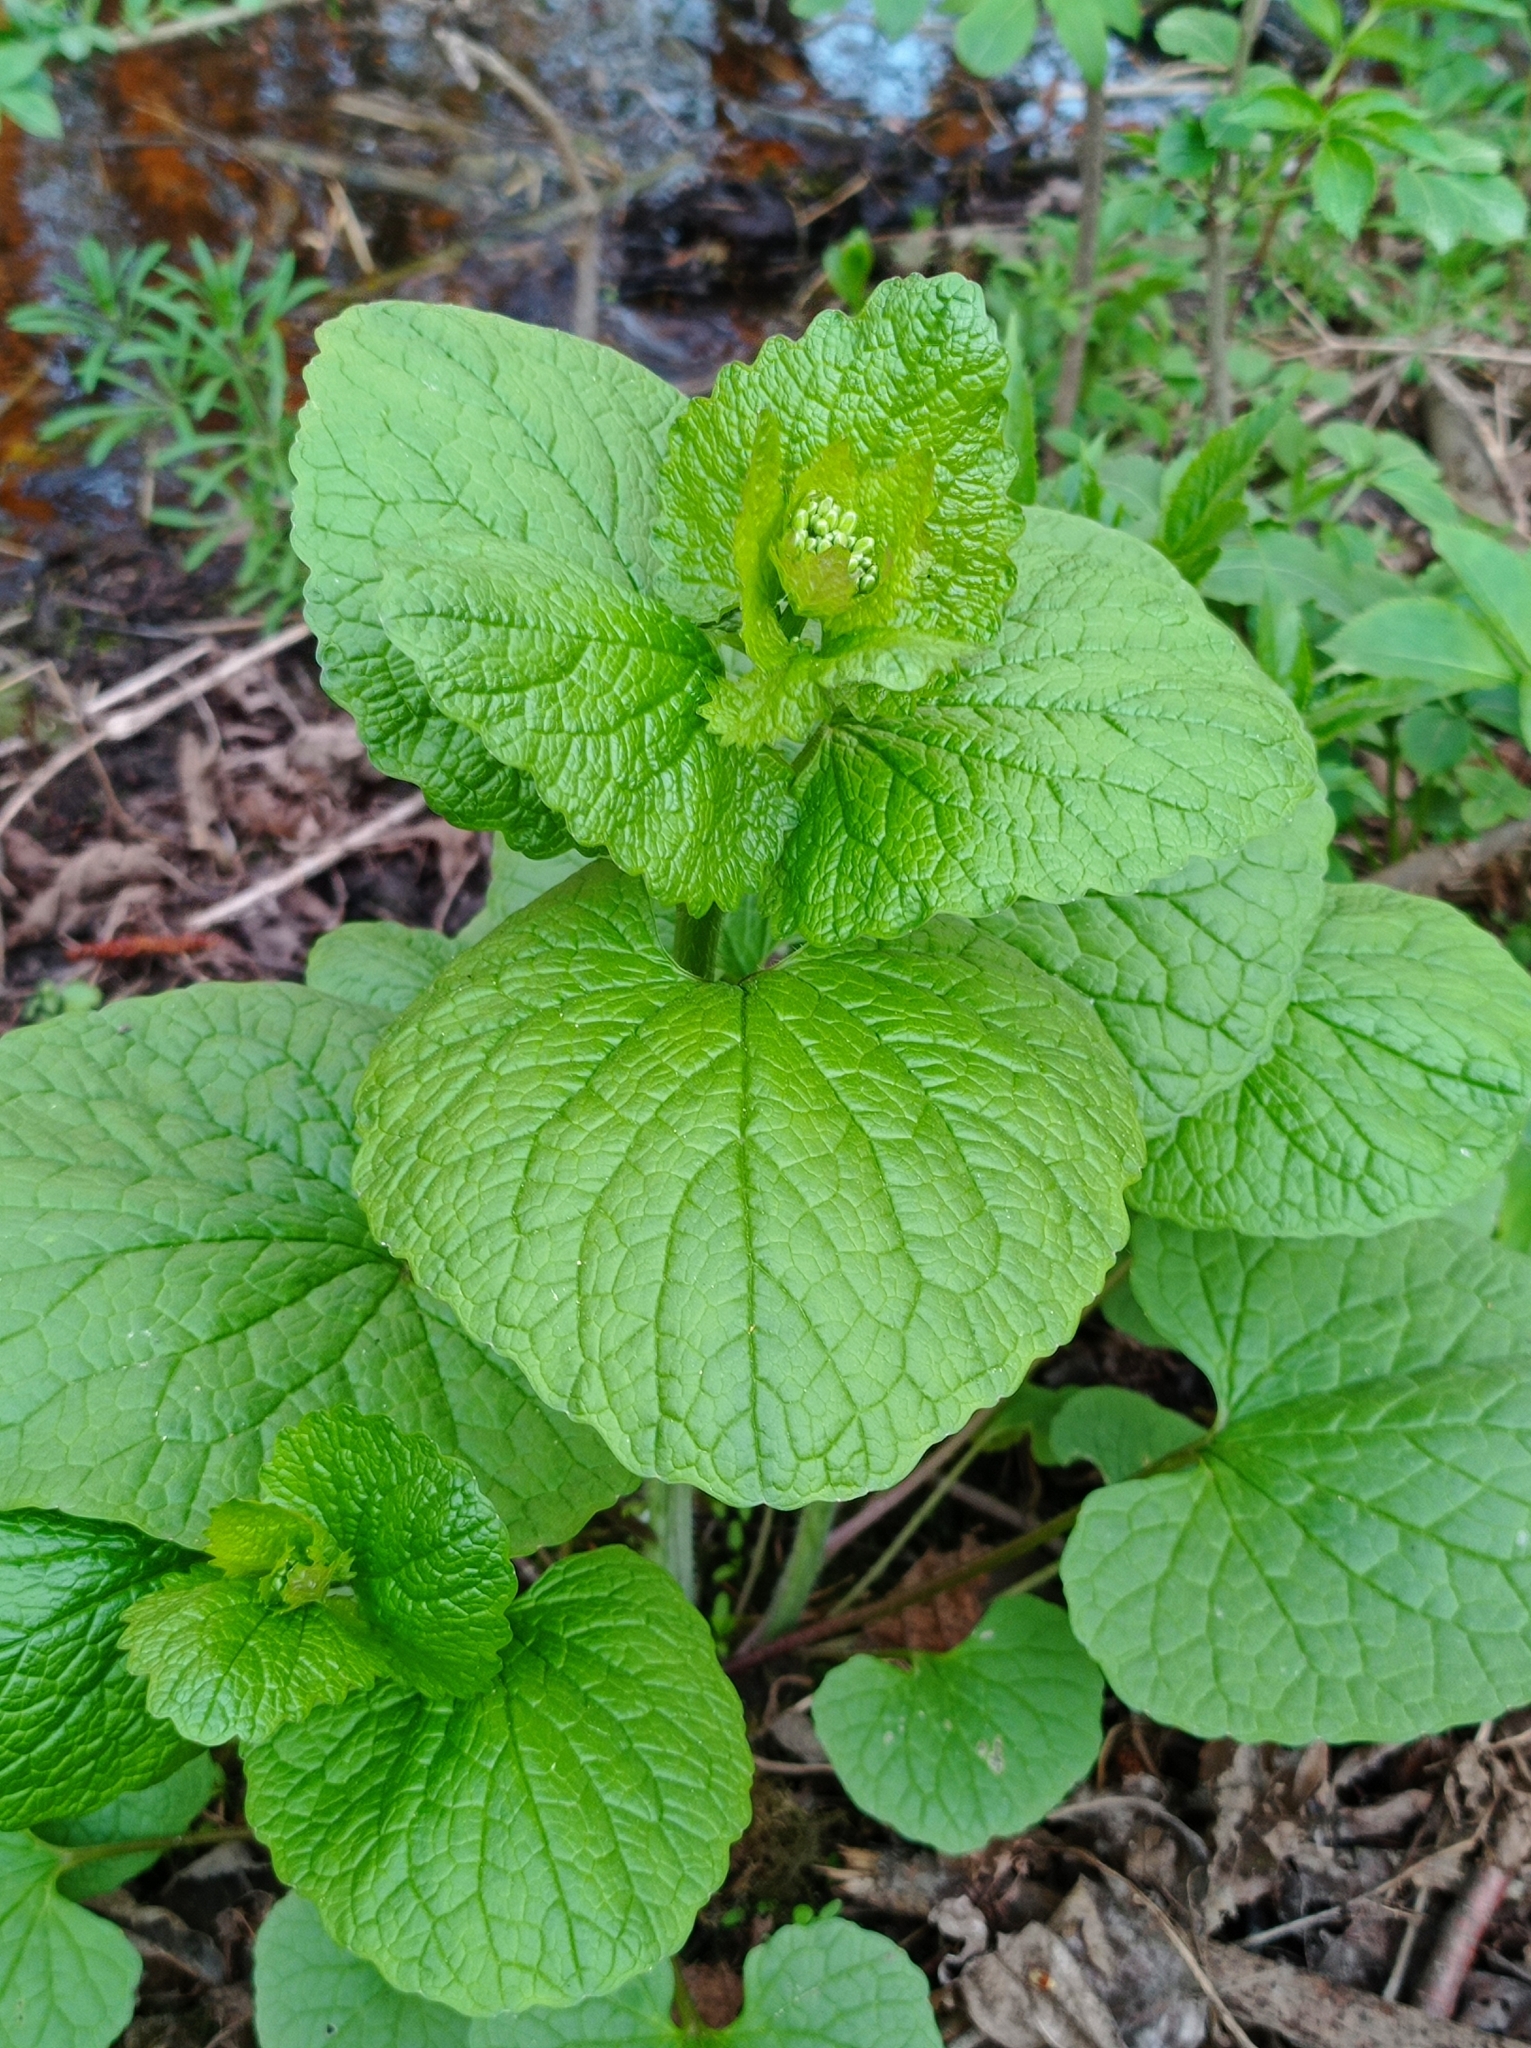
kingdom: Plantae
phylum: Tracheophyta
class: Magnoliopsida
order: Brassicales
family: Brassicaceae
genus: Alliaria
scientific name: Alliaria petiolata
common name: Garlic mustard
